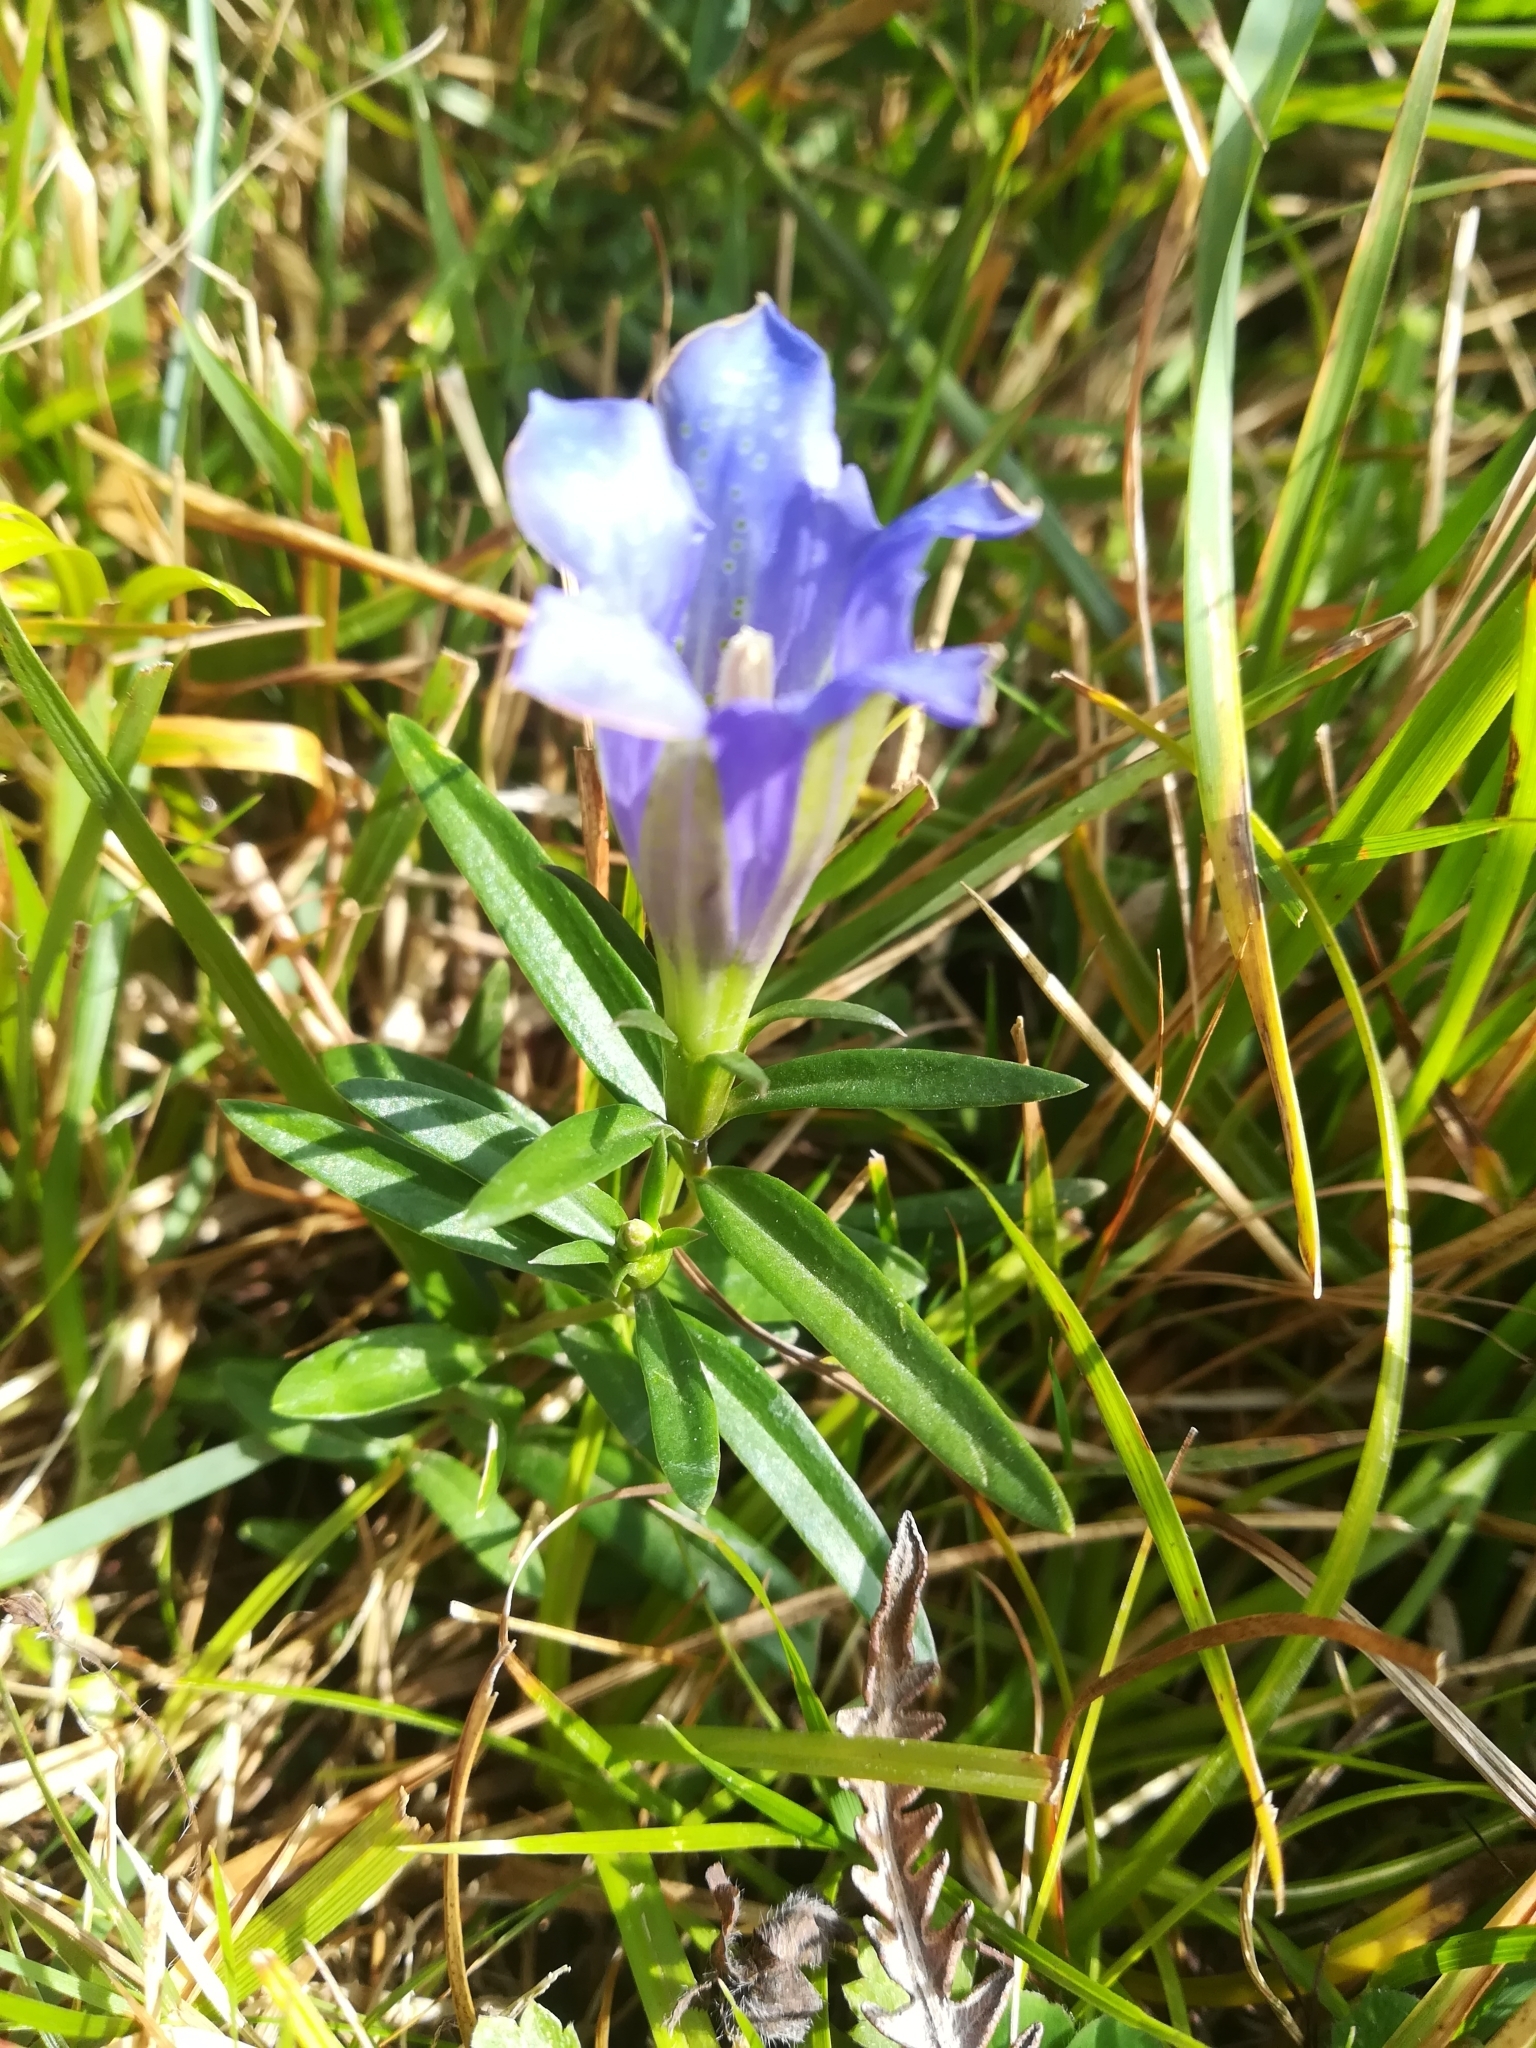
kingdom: Plantae
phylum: Tracheophyta
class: Magnoliopsida
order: Gentianales
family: Gentianaceae
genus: Gentiana
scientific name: Gentiana pneumonanthe
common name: Marsh gentian
